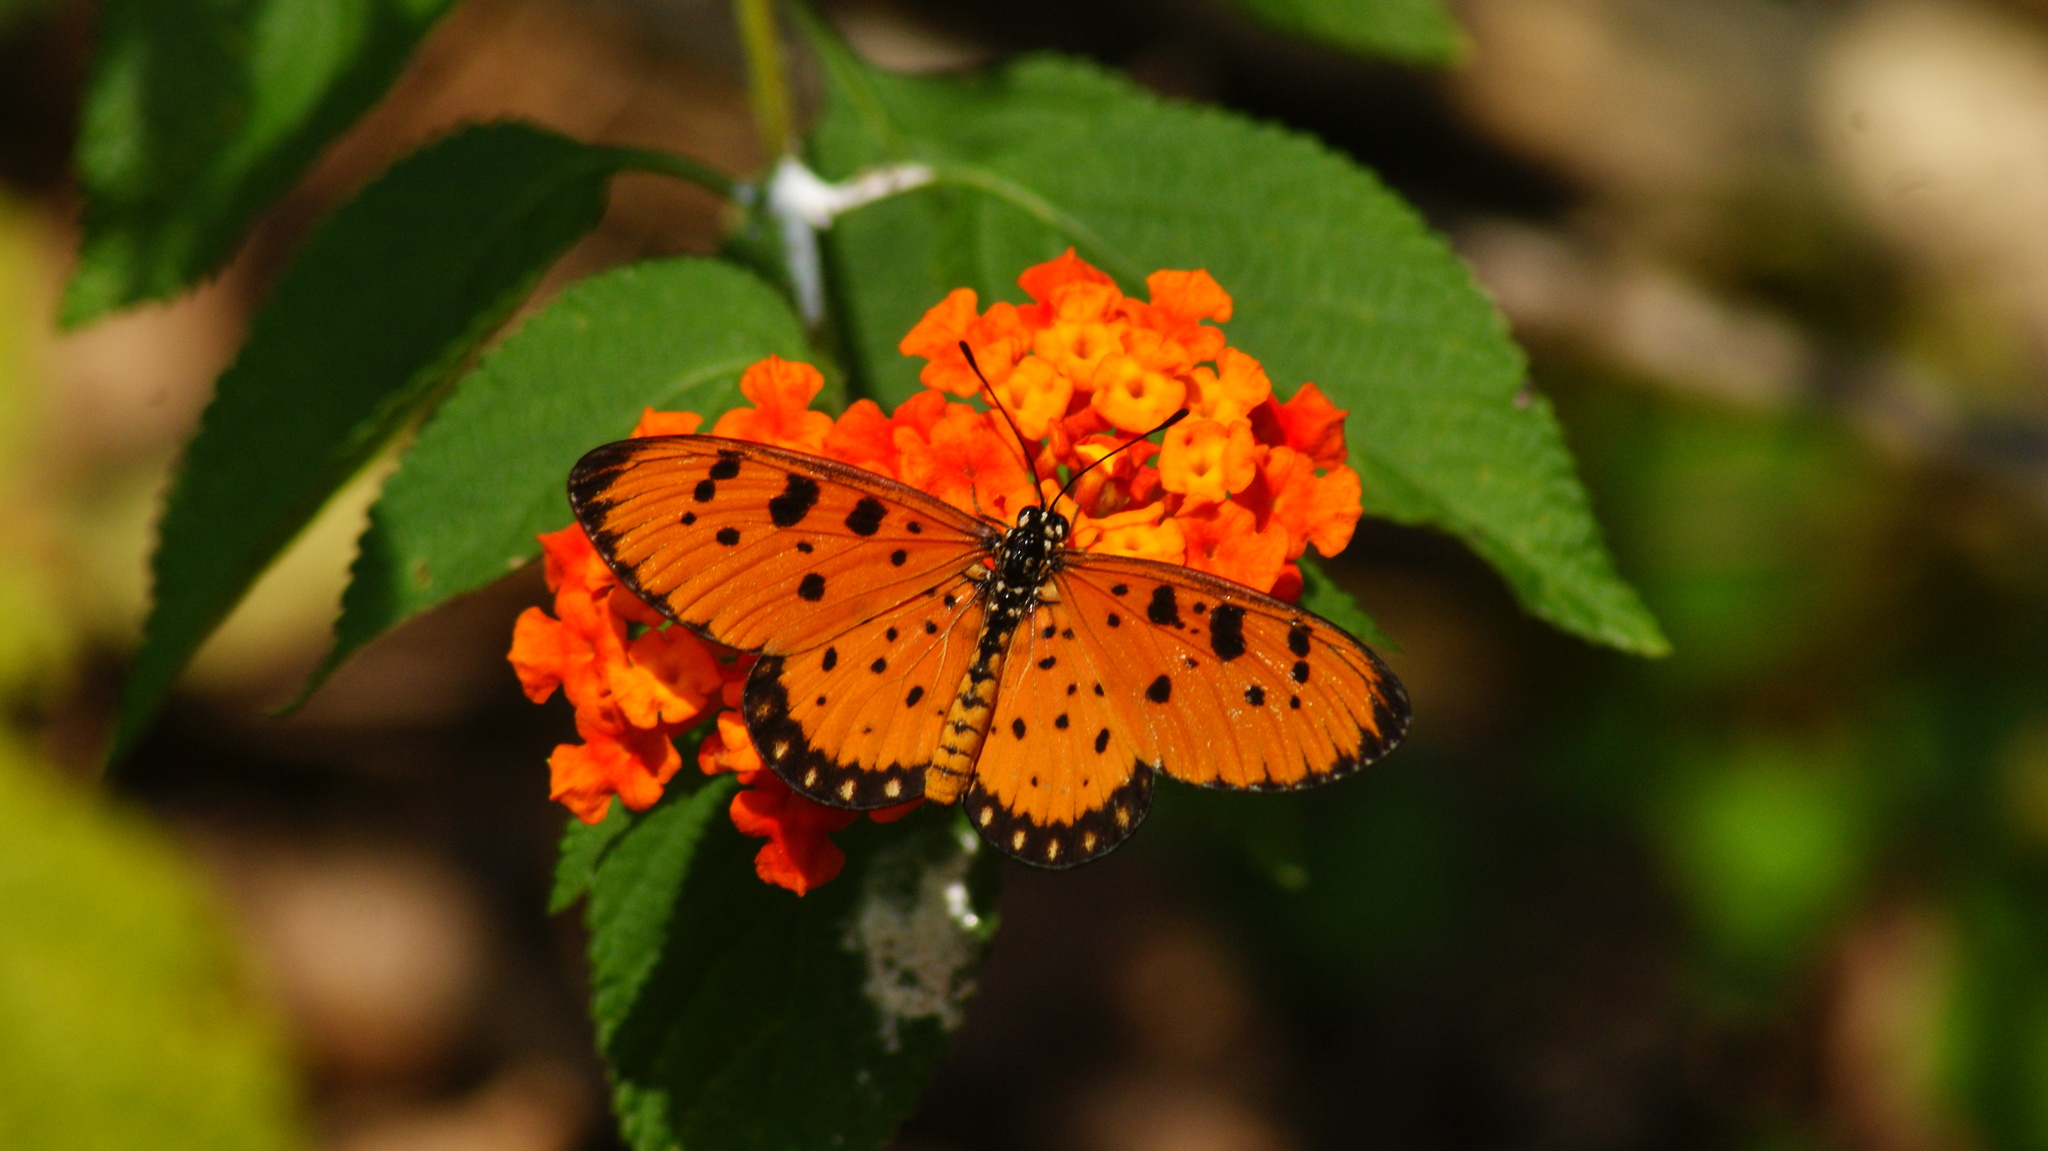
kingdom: Animalia
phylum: Arthropoda
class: Insecta
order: Lepidoptera
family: Nymphalidae
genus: Acraea
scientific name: Acraea terpsicore
